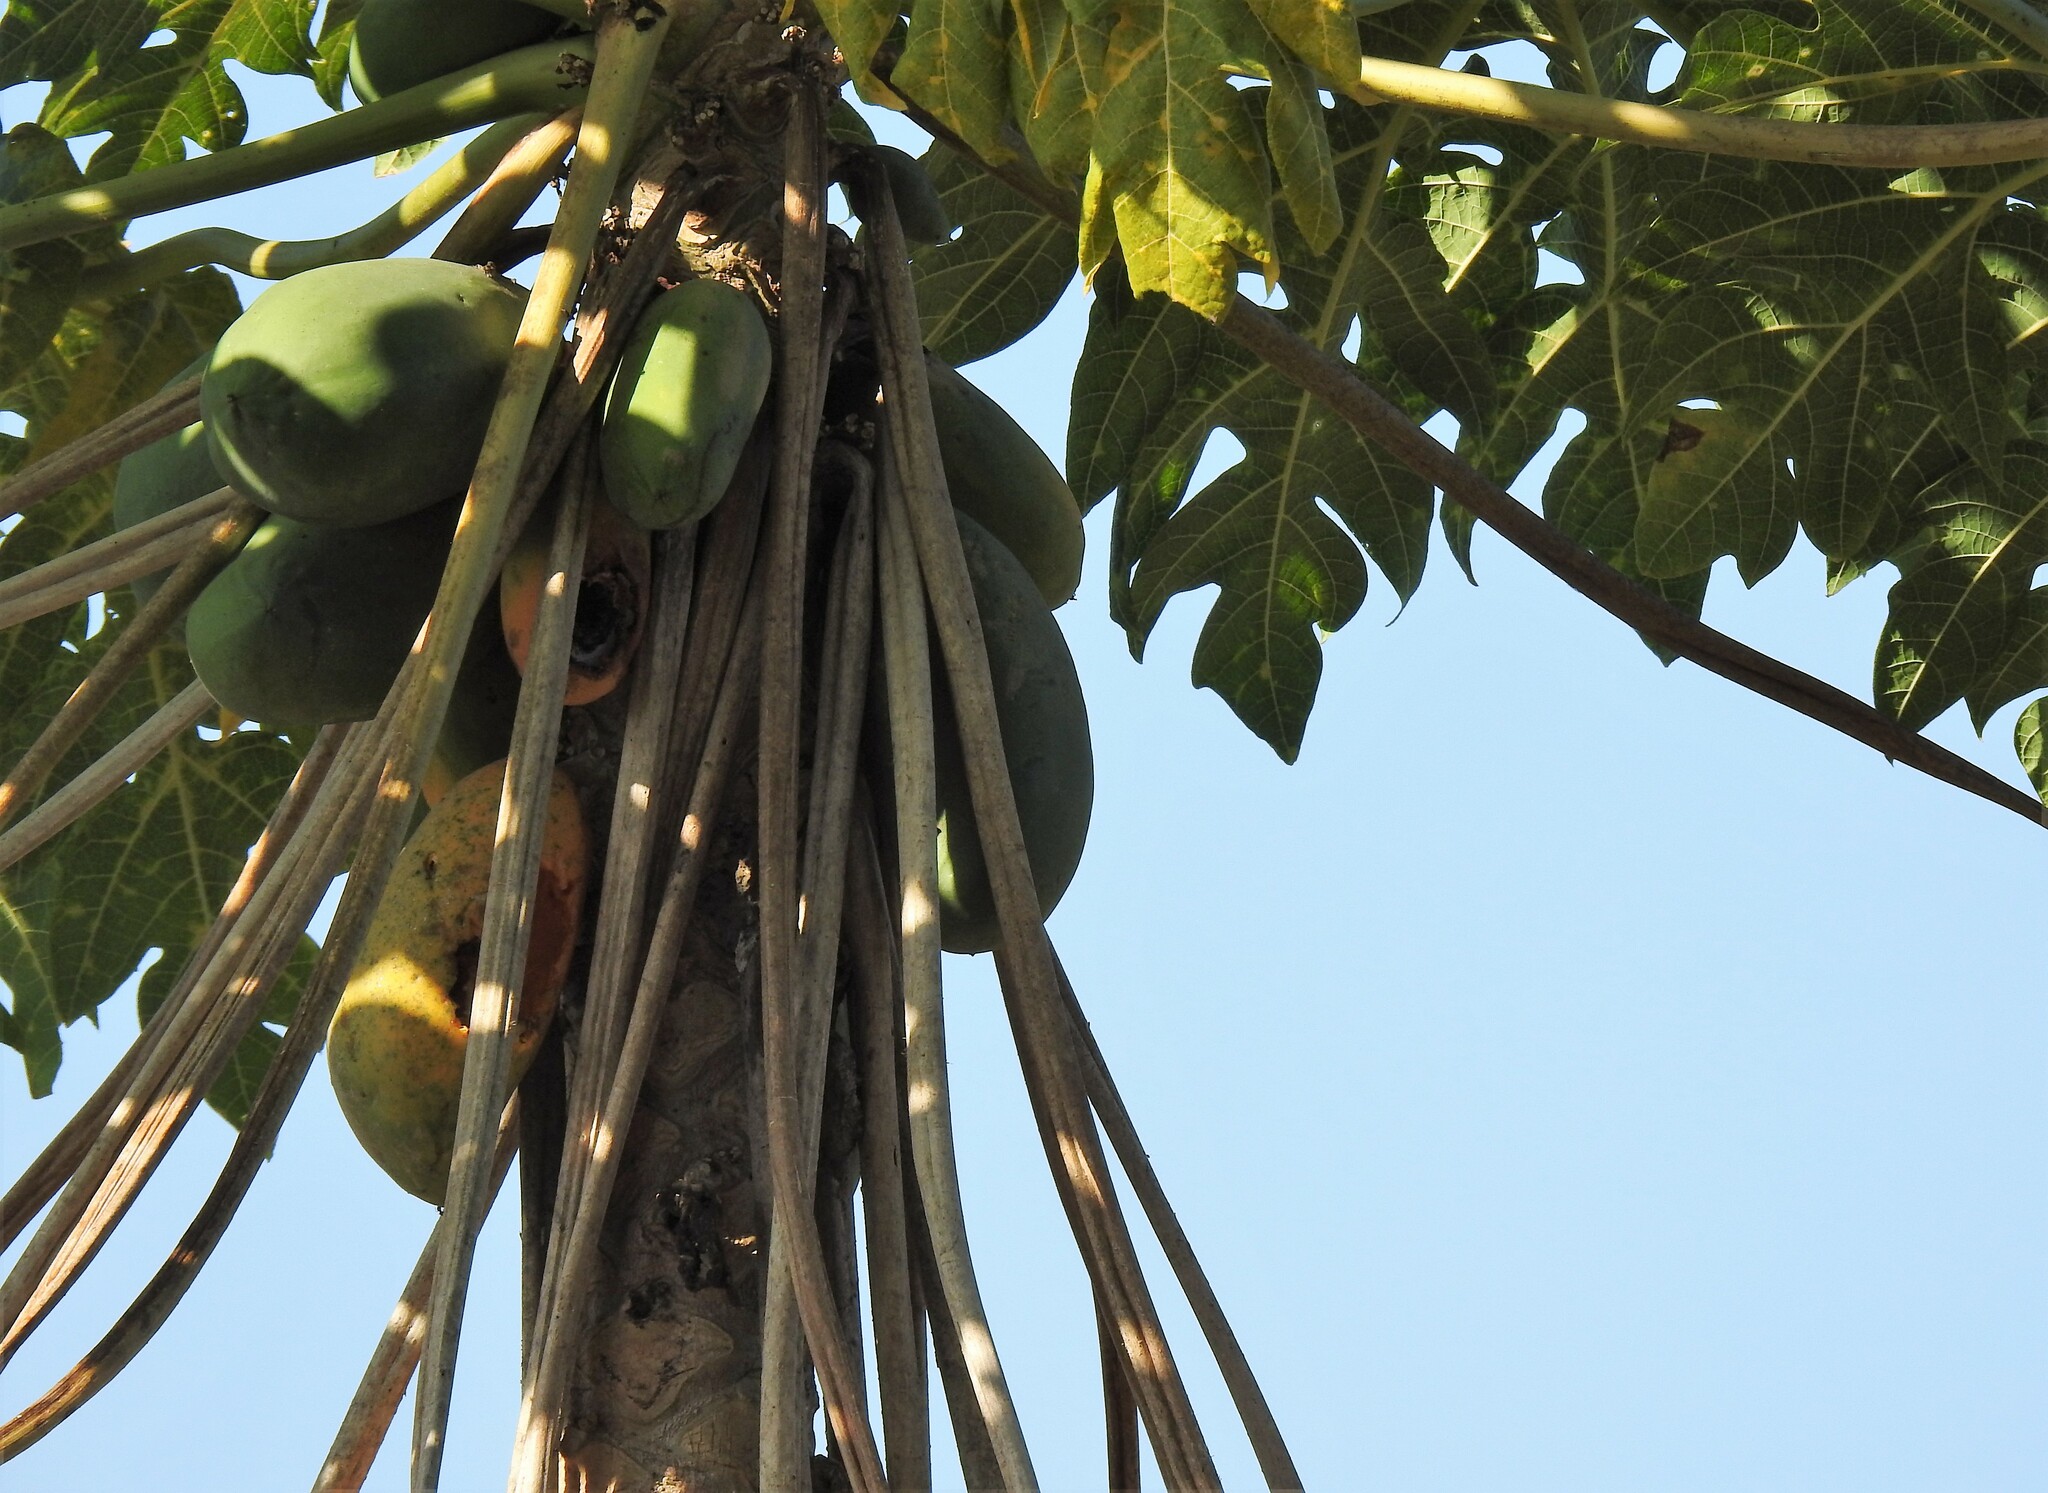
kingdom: Plantae
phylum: Tracheophyta
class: Magnoliopsida
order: Brassicales
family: Caricaceae
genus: Carica
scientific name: Carica papaya
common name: Papaya
